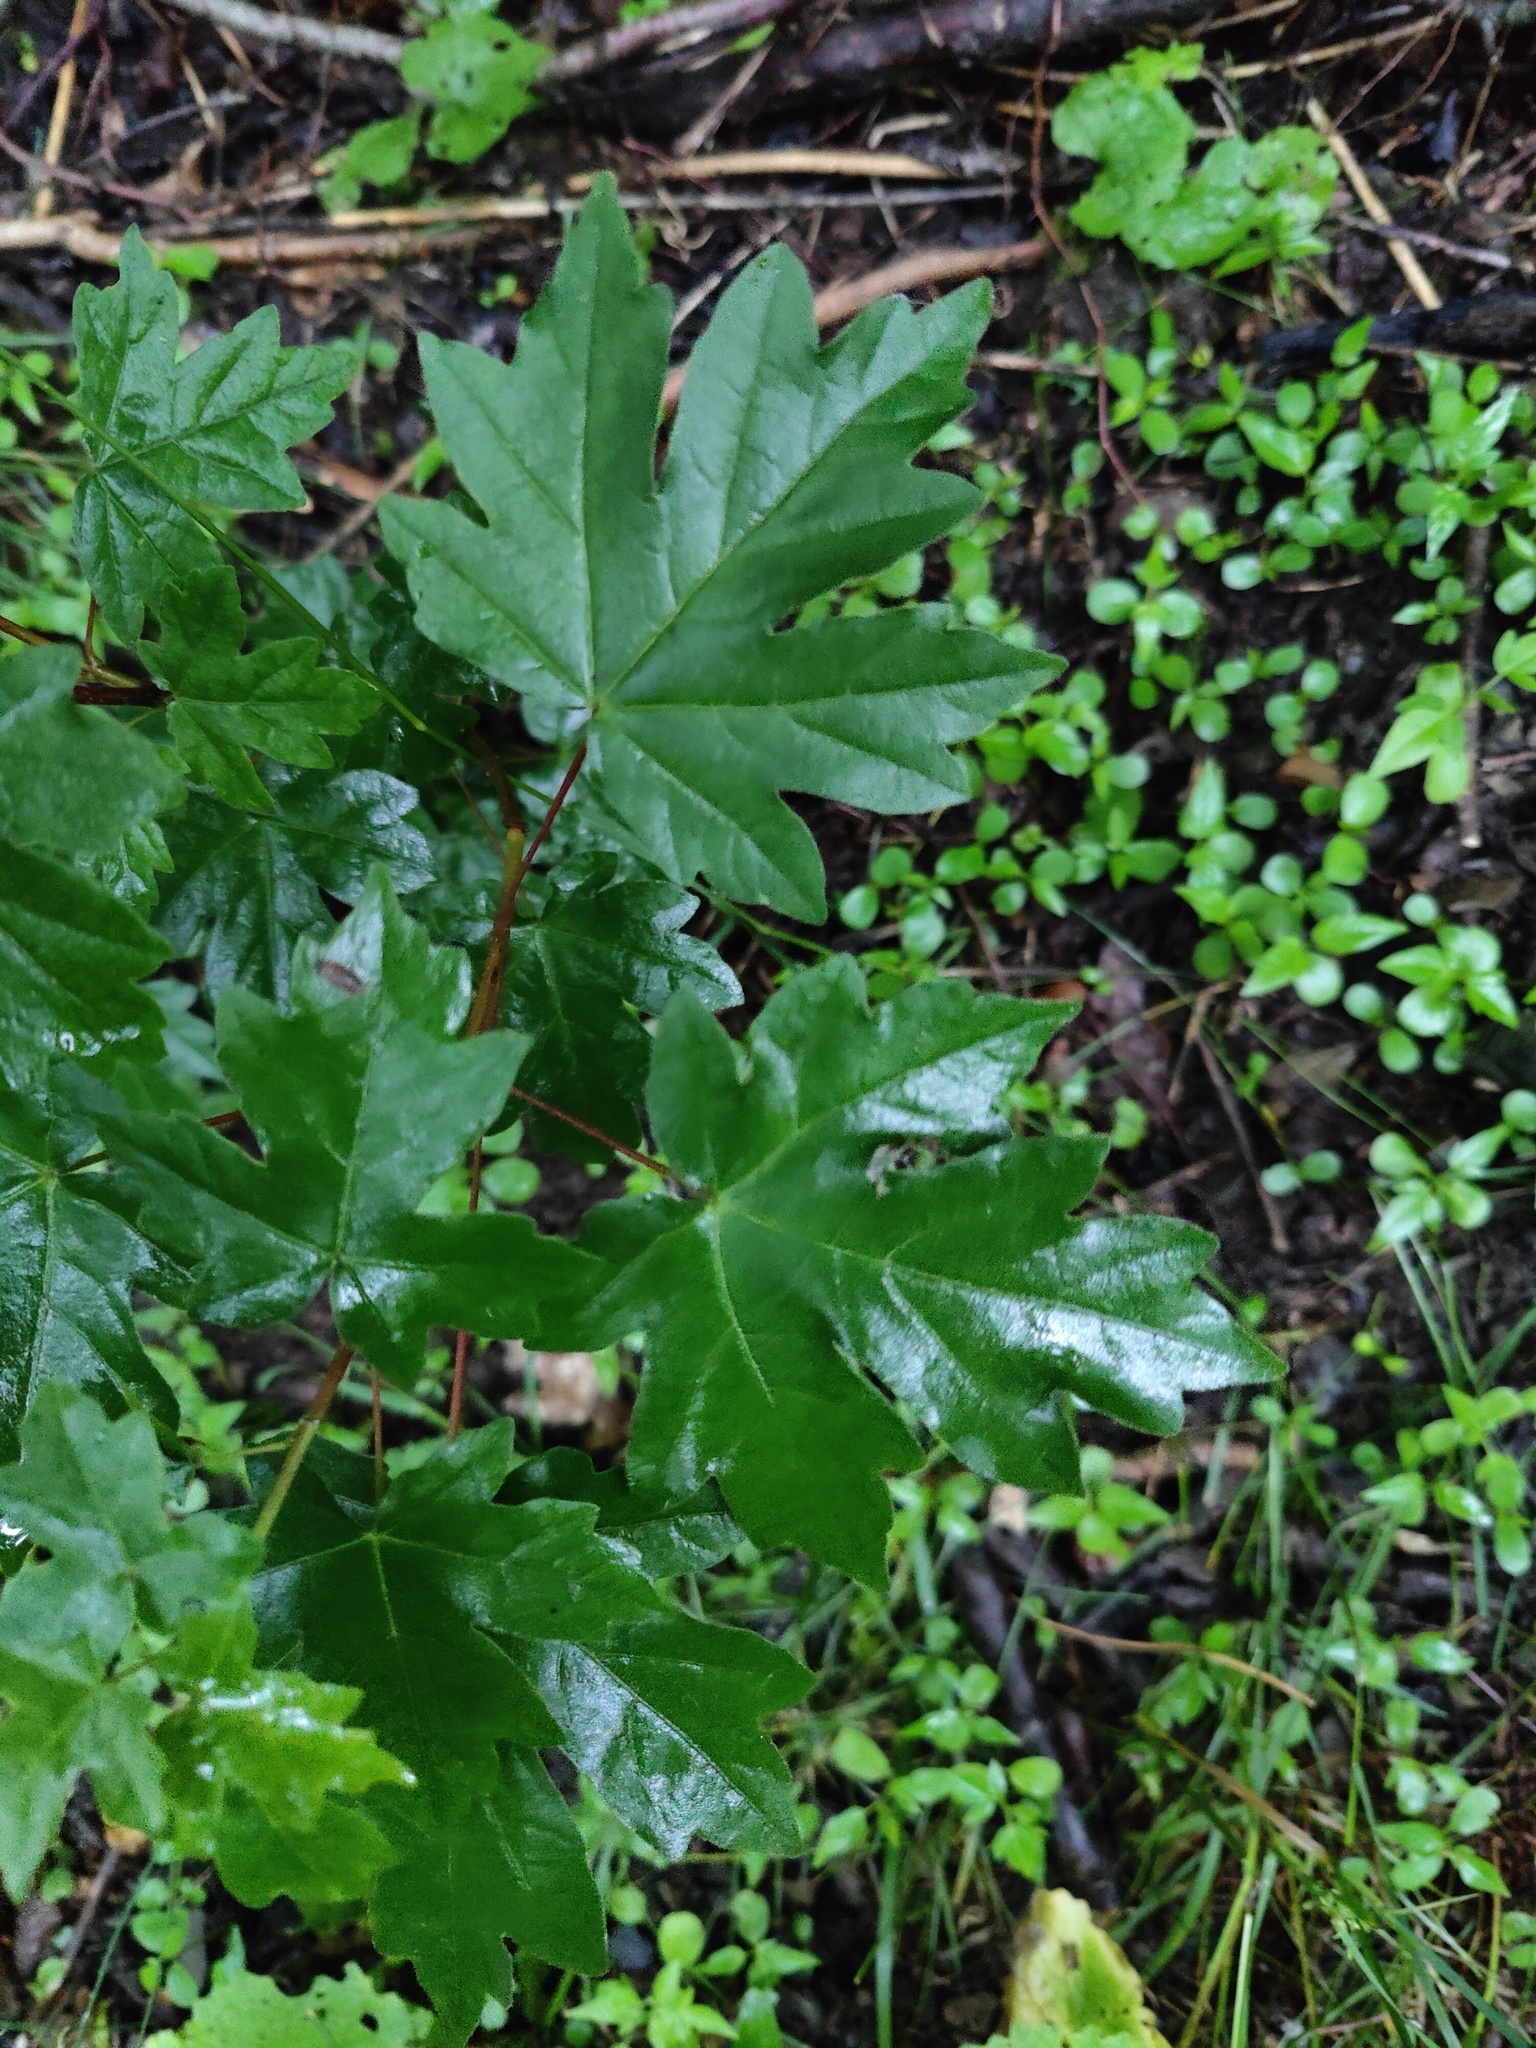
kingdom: Plantae
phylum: Tracheophyta
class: Magnoliopsida
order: Sapindales
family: Sapindaceae
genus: Acer
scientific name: Acer campestre
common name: Field maple
